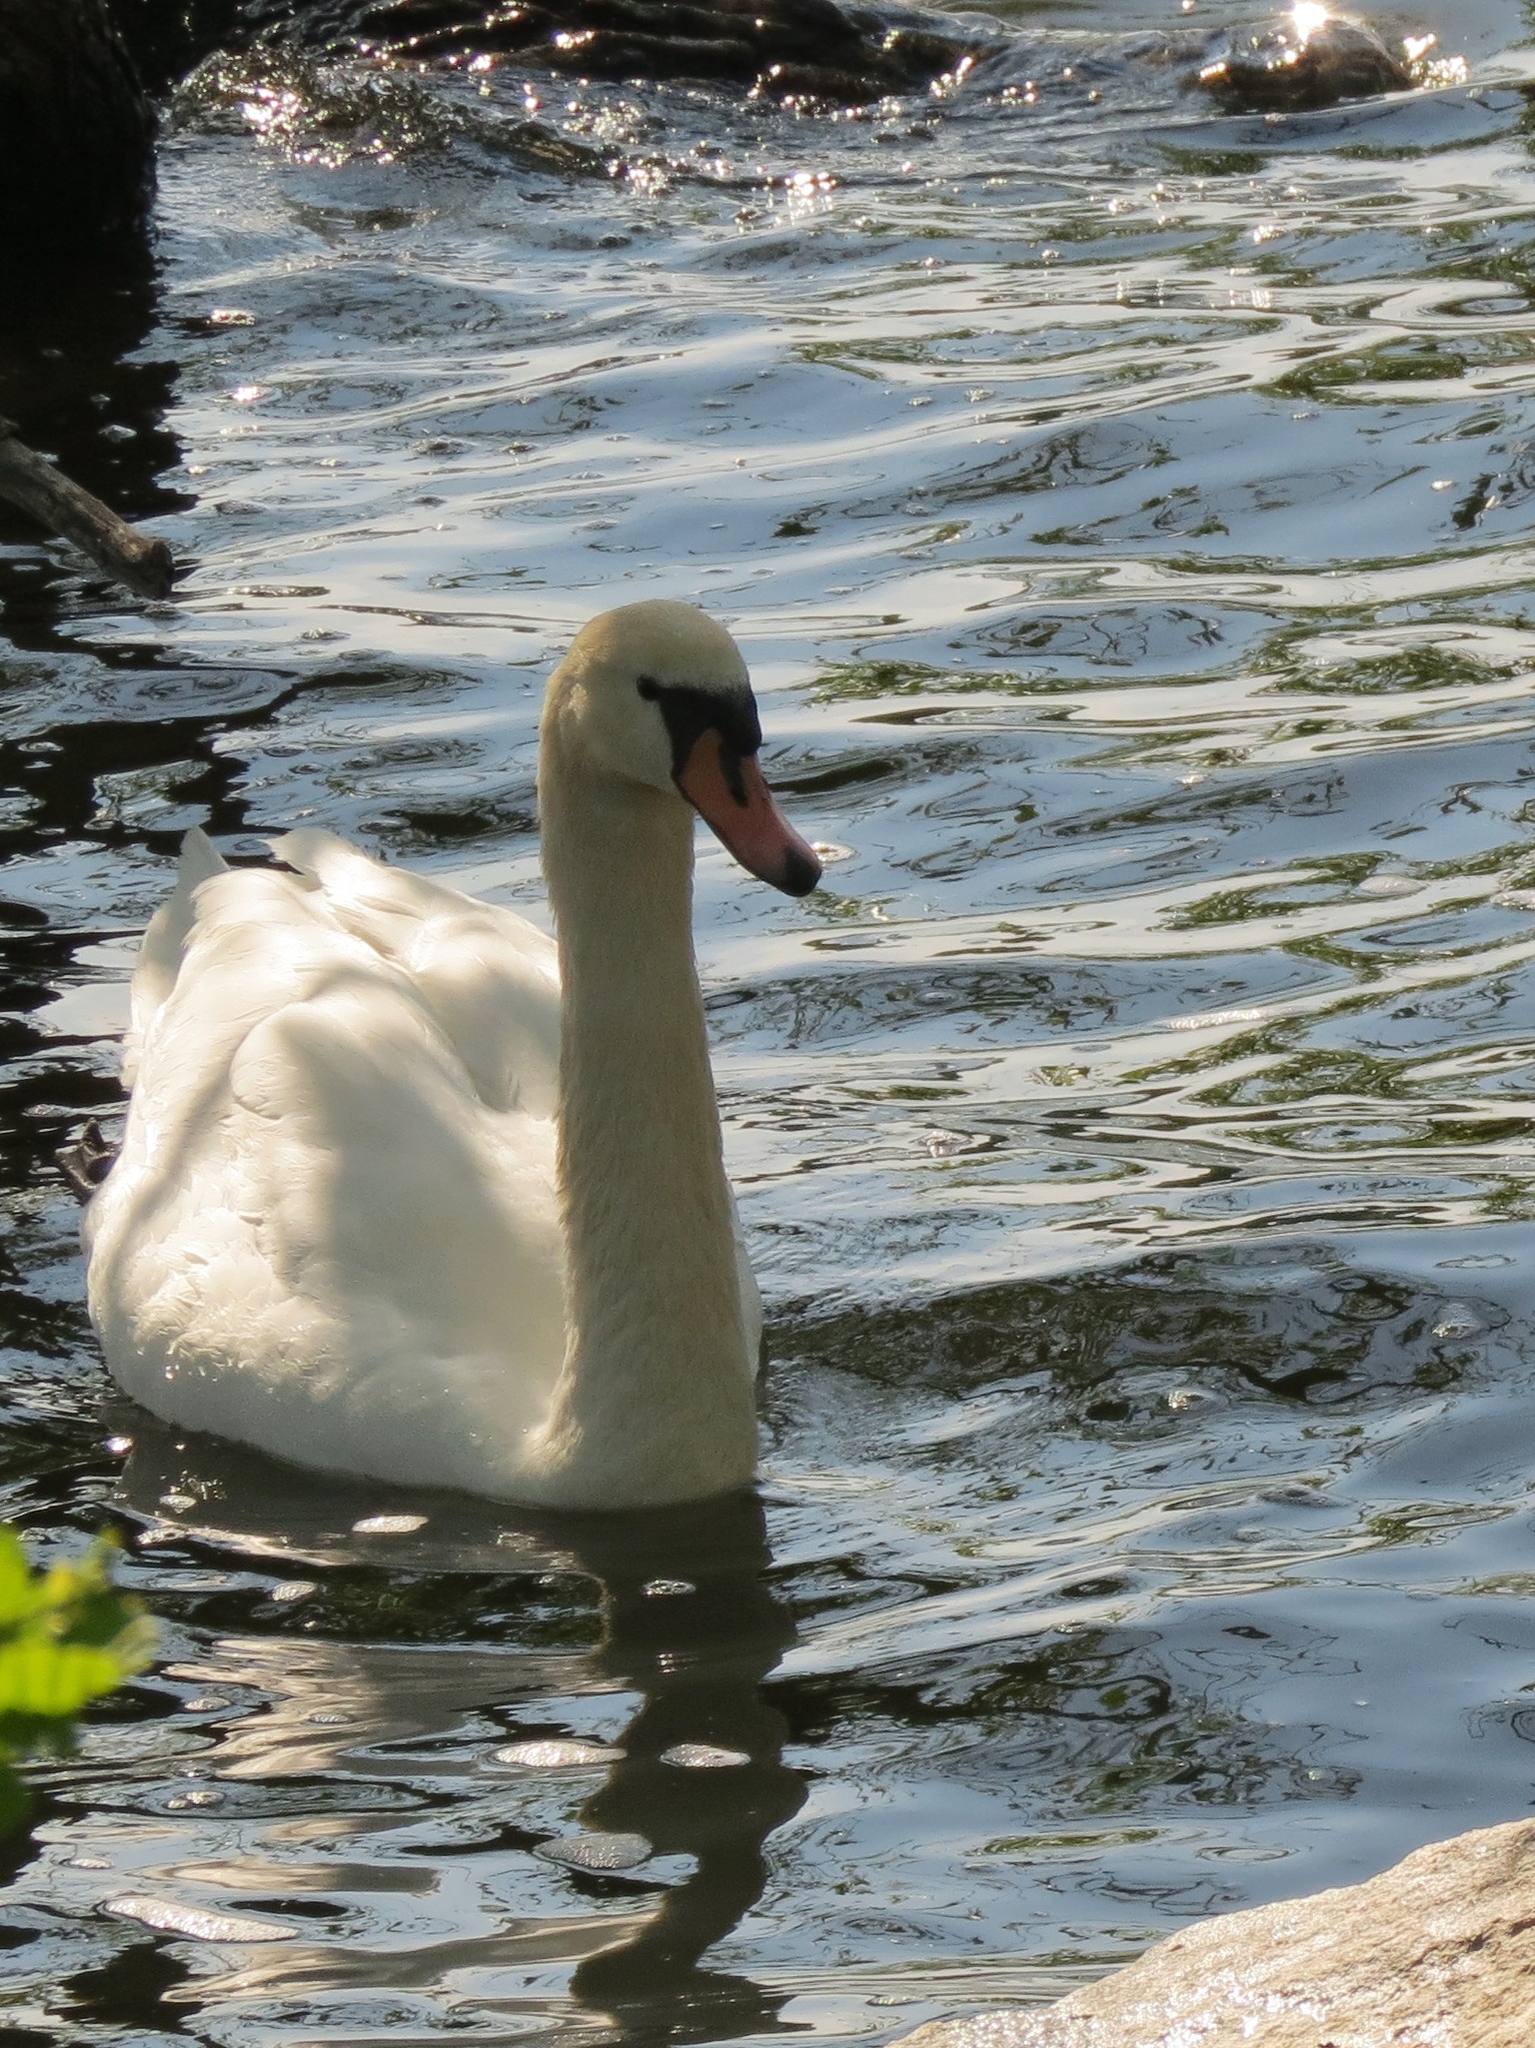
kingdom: Animalia
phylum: Chordata
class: Aves
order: Anseriformes
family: Anatidae
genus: Cygnus
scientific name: Cygnus olor
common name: Mute swan
